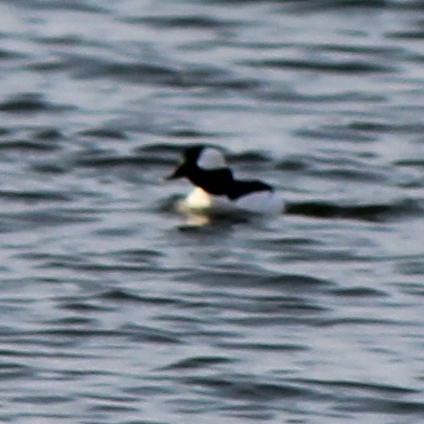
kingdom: Animalia
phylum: Chordata
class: Aves
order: Anseriformes
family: Anatidae
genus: Bucephala
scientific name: Bucephala albeola
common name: Bufflehead
